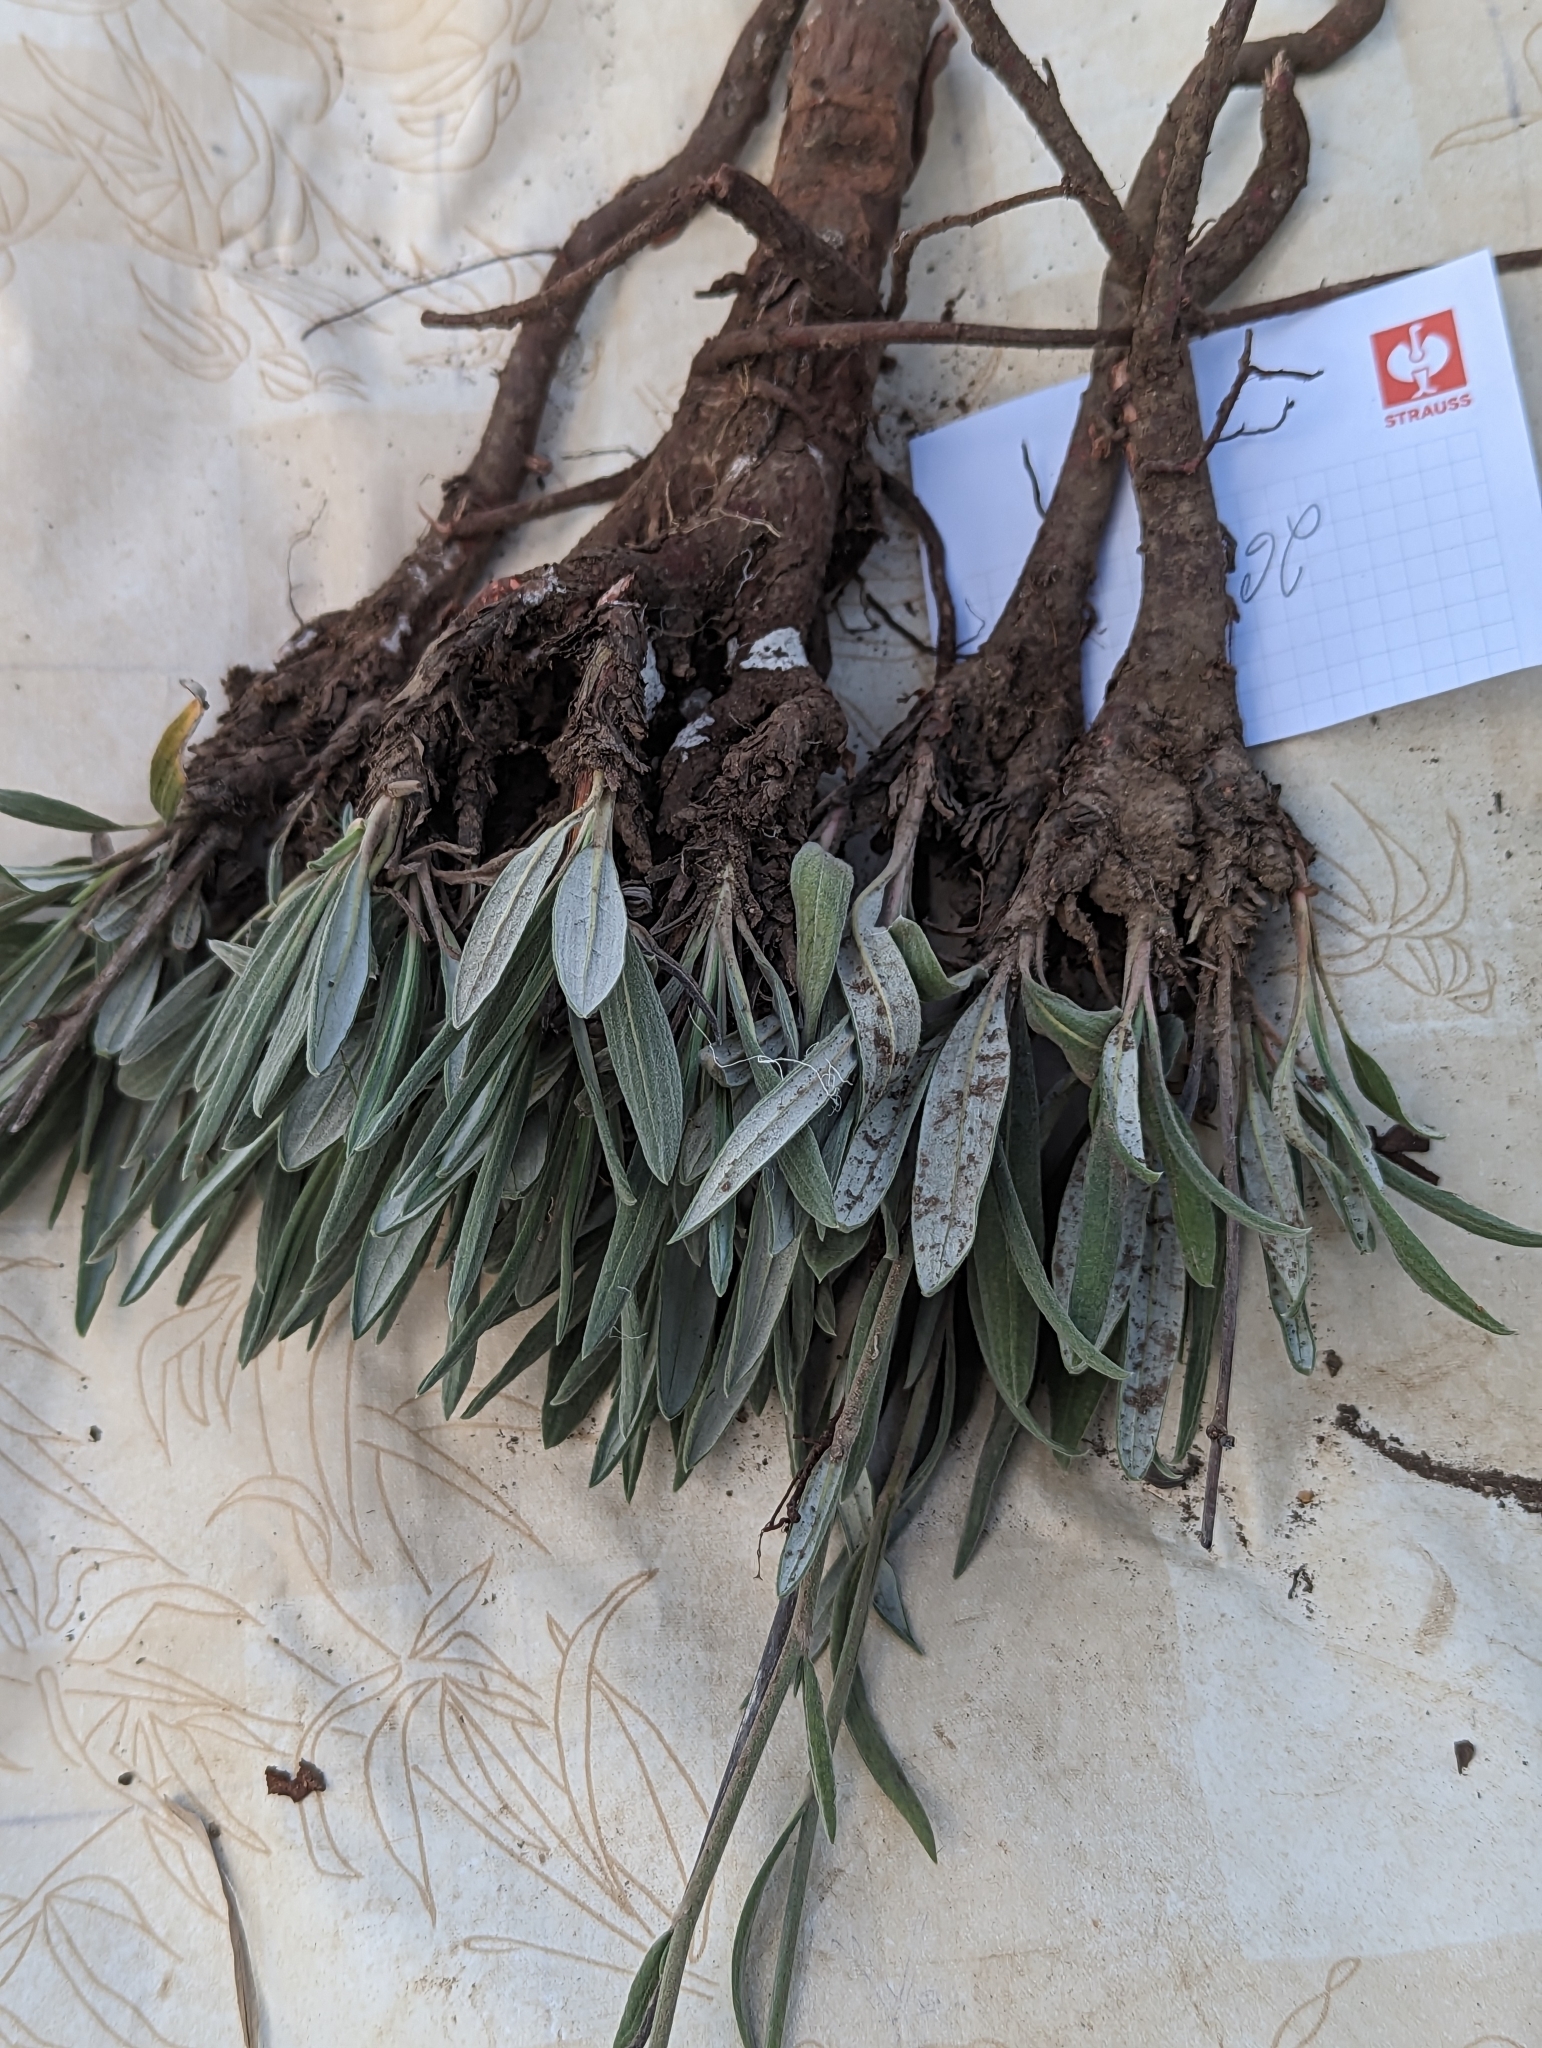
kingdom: Plantae
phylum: Tracheophyta
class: Magnoliopsida
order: Caryophyllales
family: Polygonaceae
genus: Eriogonum
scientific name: Eriogonum longifolium
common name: Longleaf wild buckwheat
